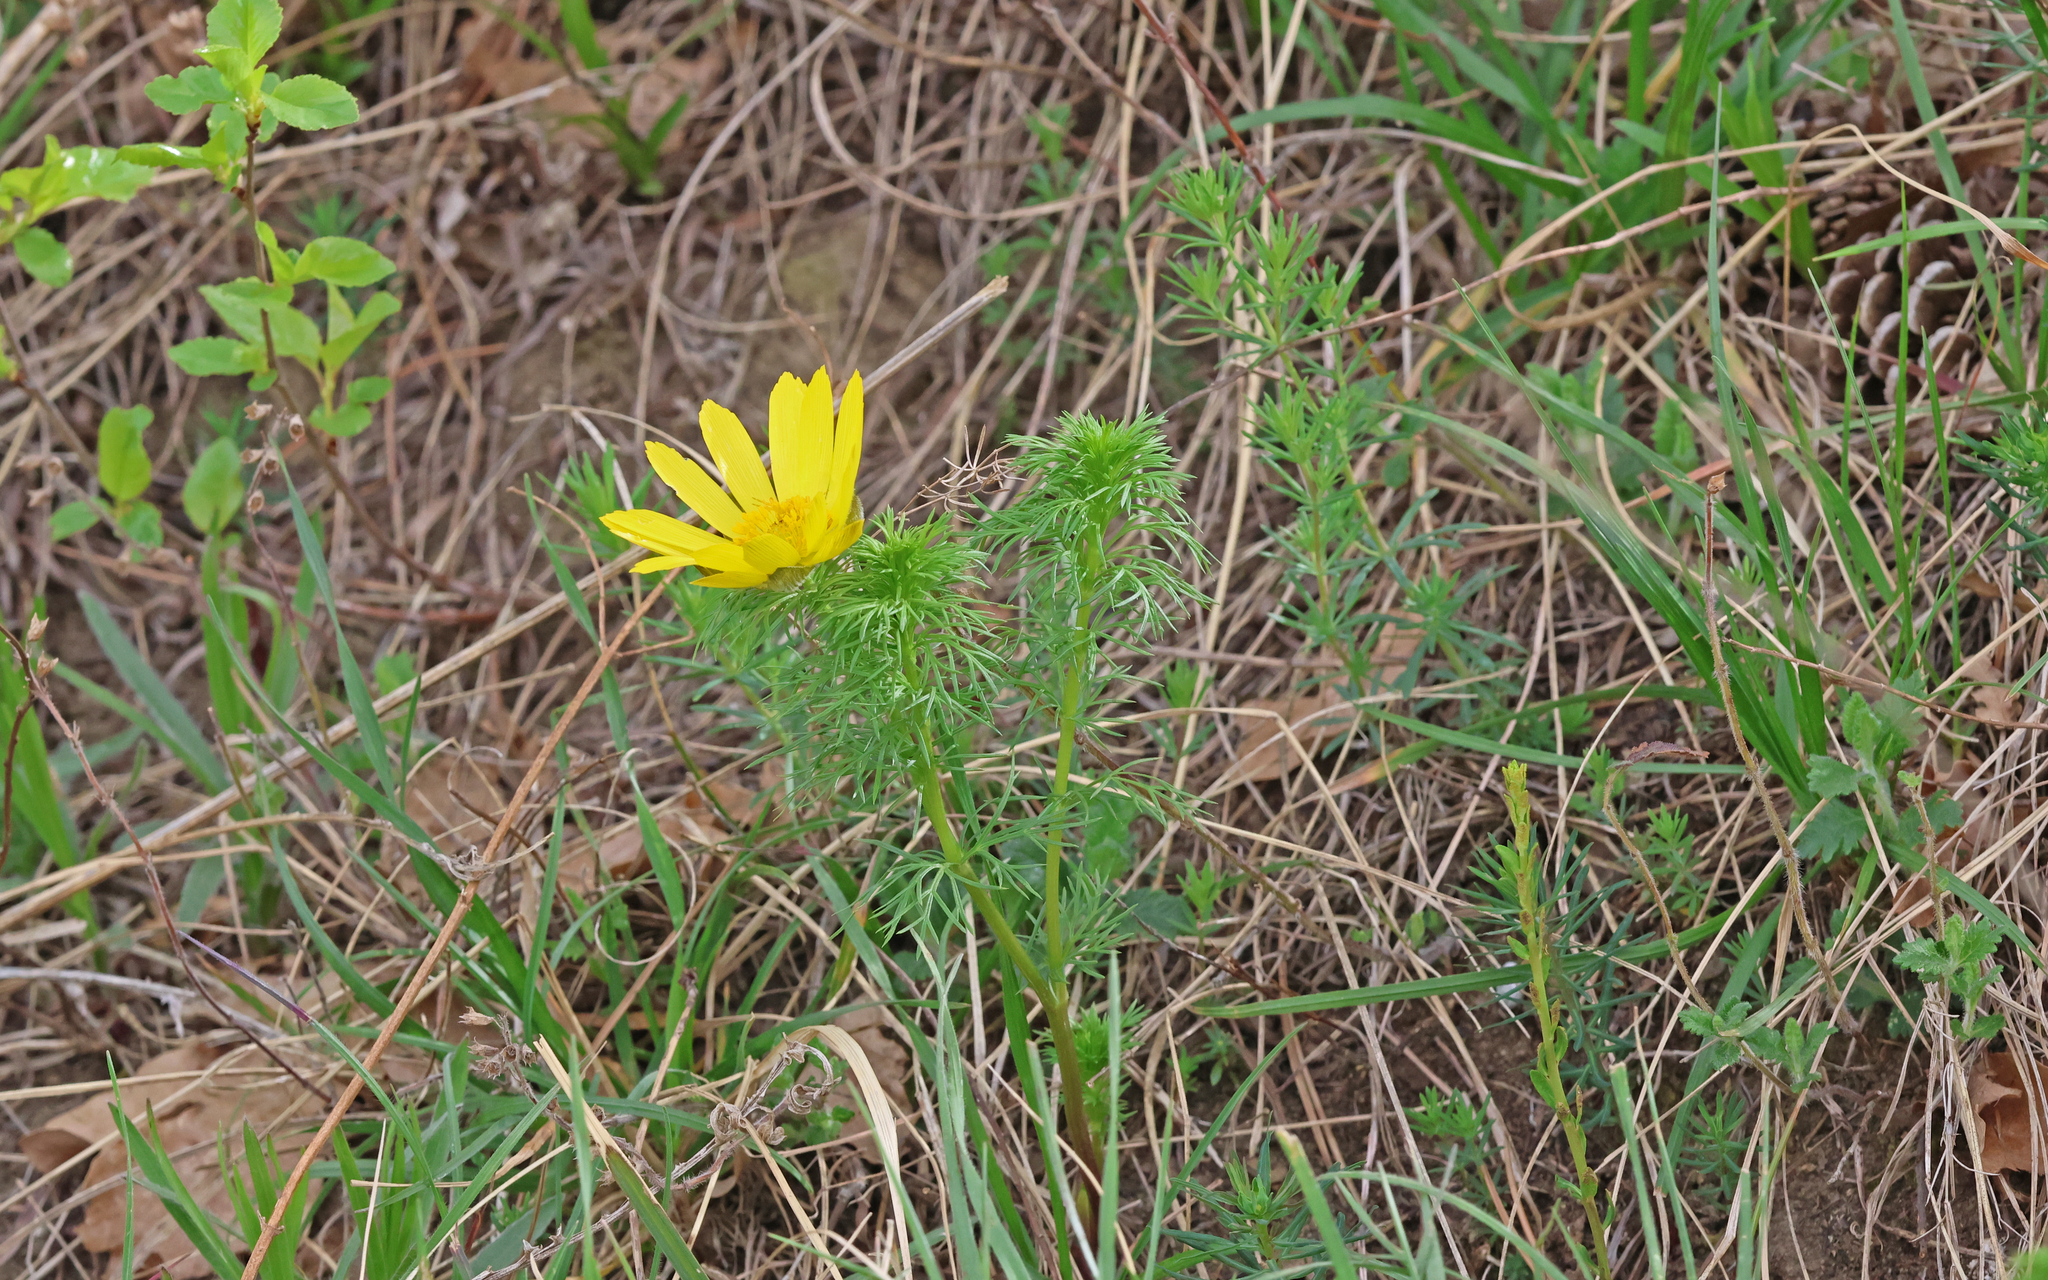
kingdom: Plantae
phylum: Tracheophyta
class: Magnoliopsida
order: Ranunculales
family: Ranunculaceae
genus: Adonis
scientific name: Adonis vernalis
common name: Yellow pheasants-eye
